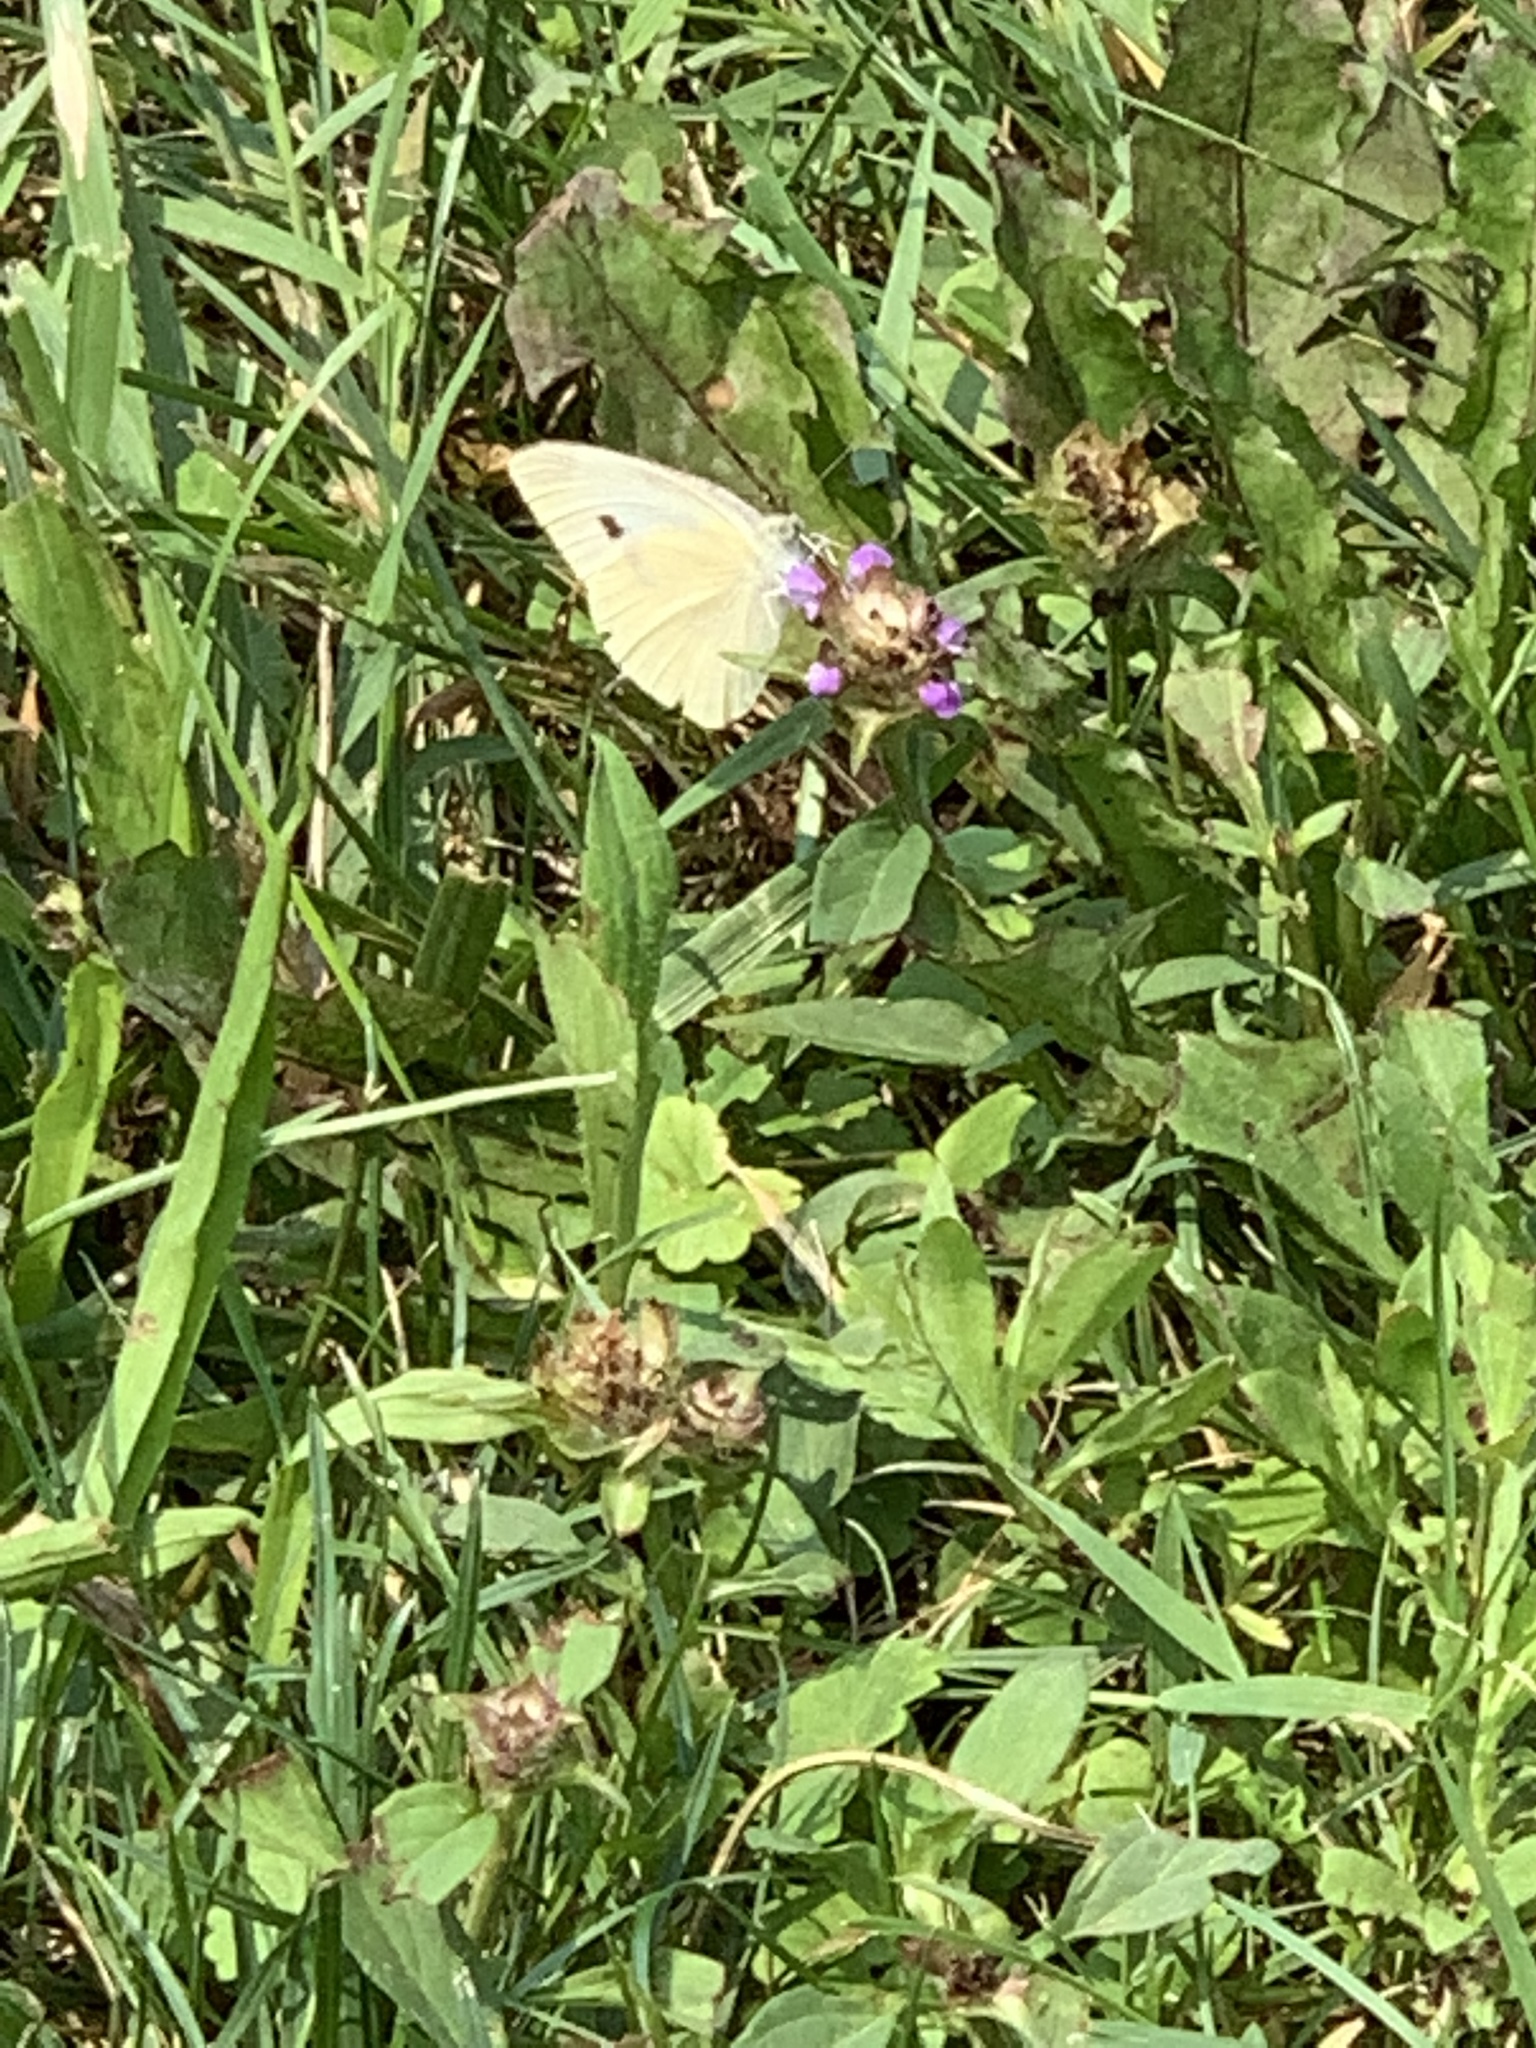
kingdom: Animalia
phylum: Arthropoda
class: Insecta
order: Lepidoptera
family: Pieridae
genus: Pieris
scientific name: Pieris rapae
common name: Small white
